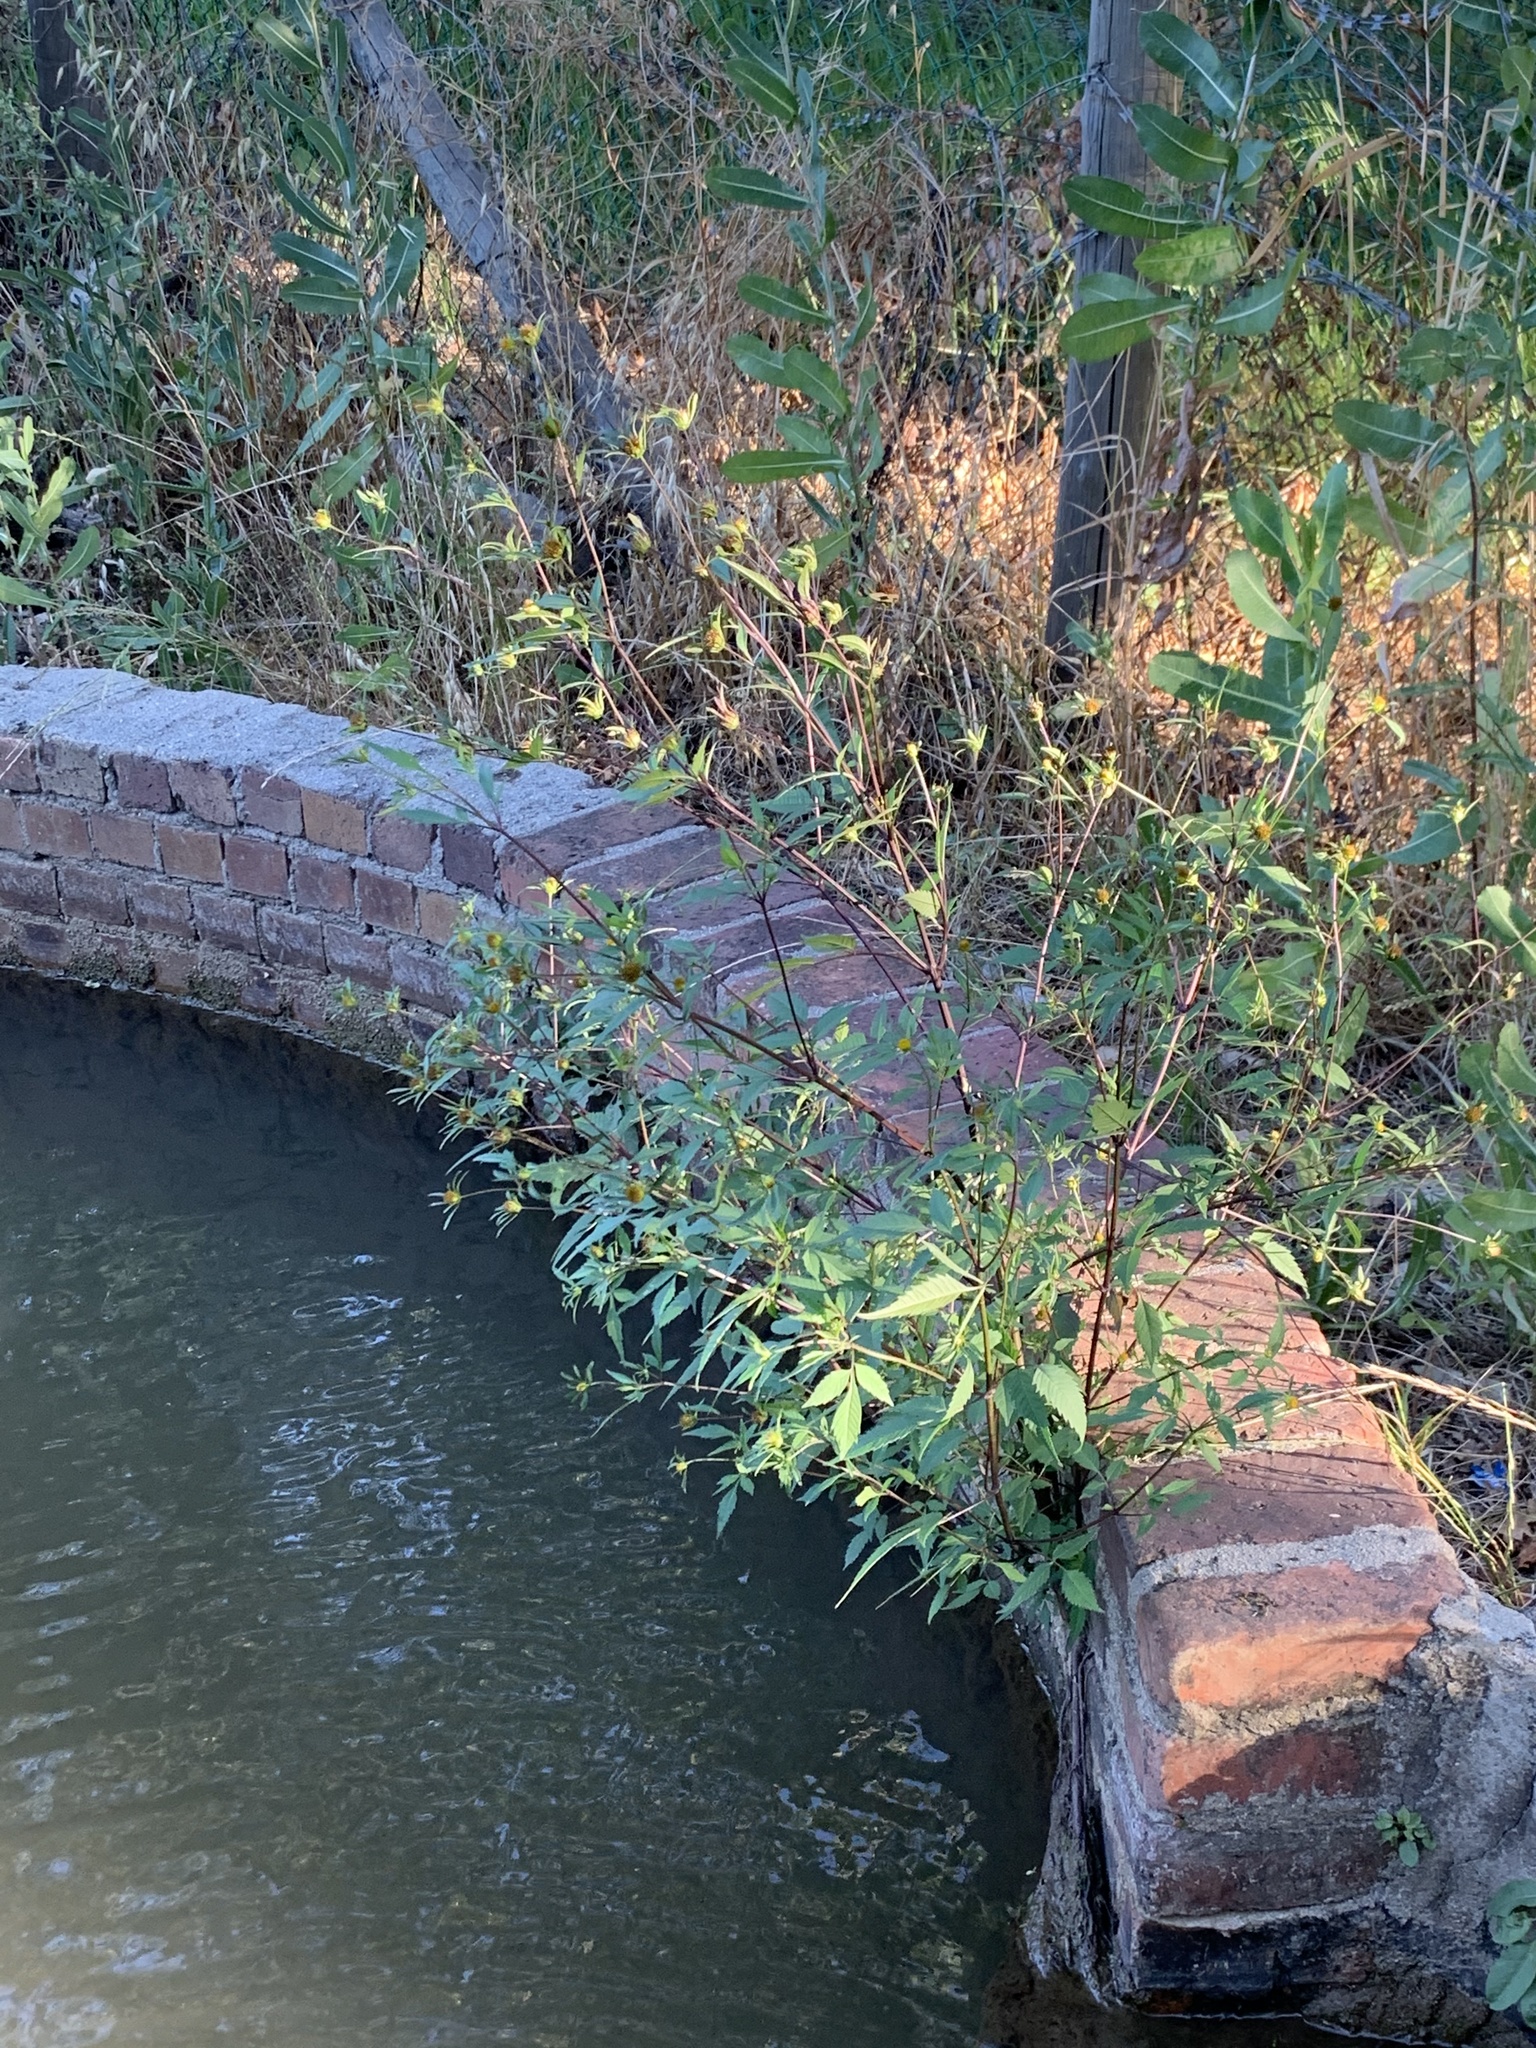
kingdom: Plantae
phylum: Tracheophyta
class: Magnoliopsida
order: Asterales
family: Asteraceae
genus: Bidens
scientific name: Bidens frondosa
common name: Beggarticks
